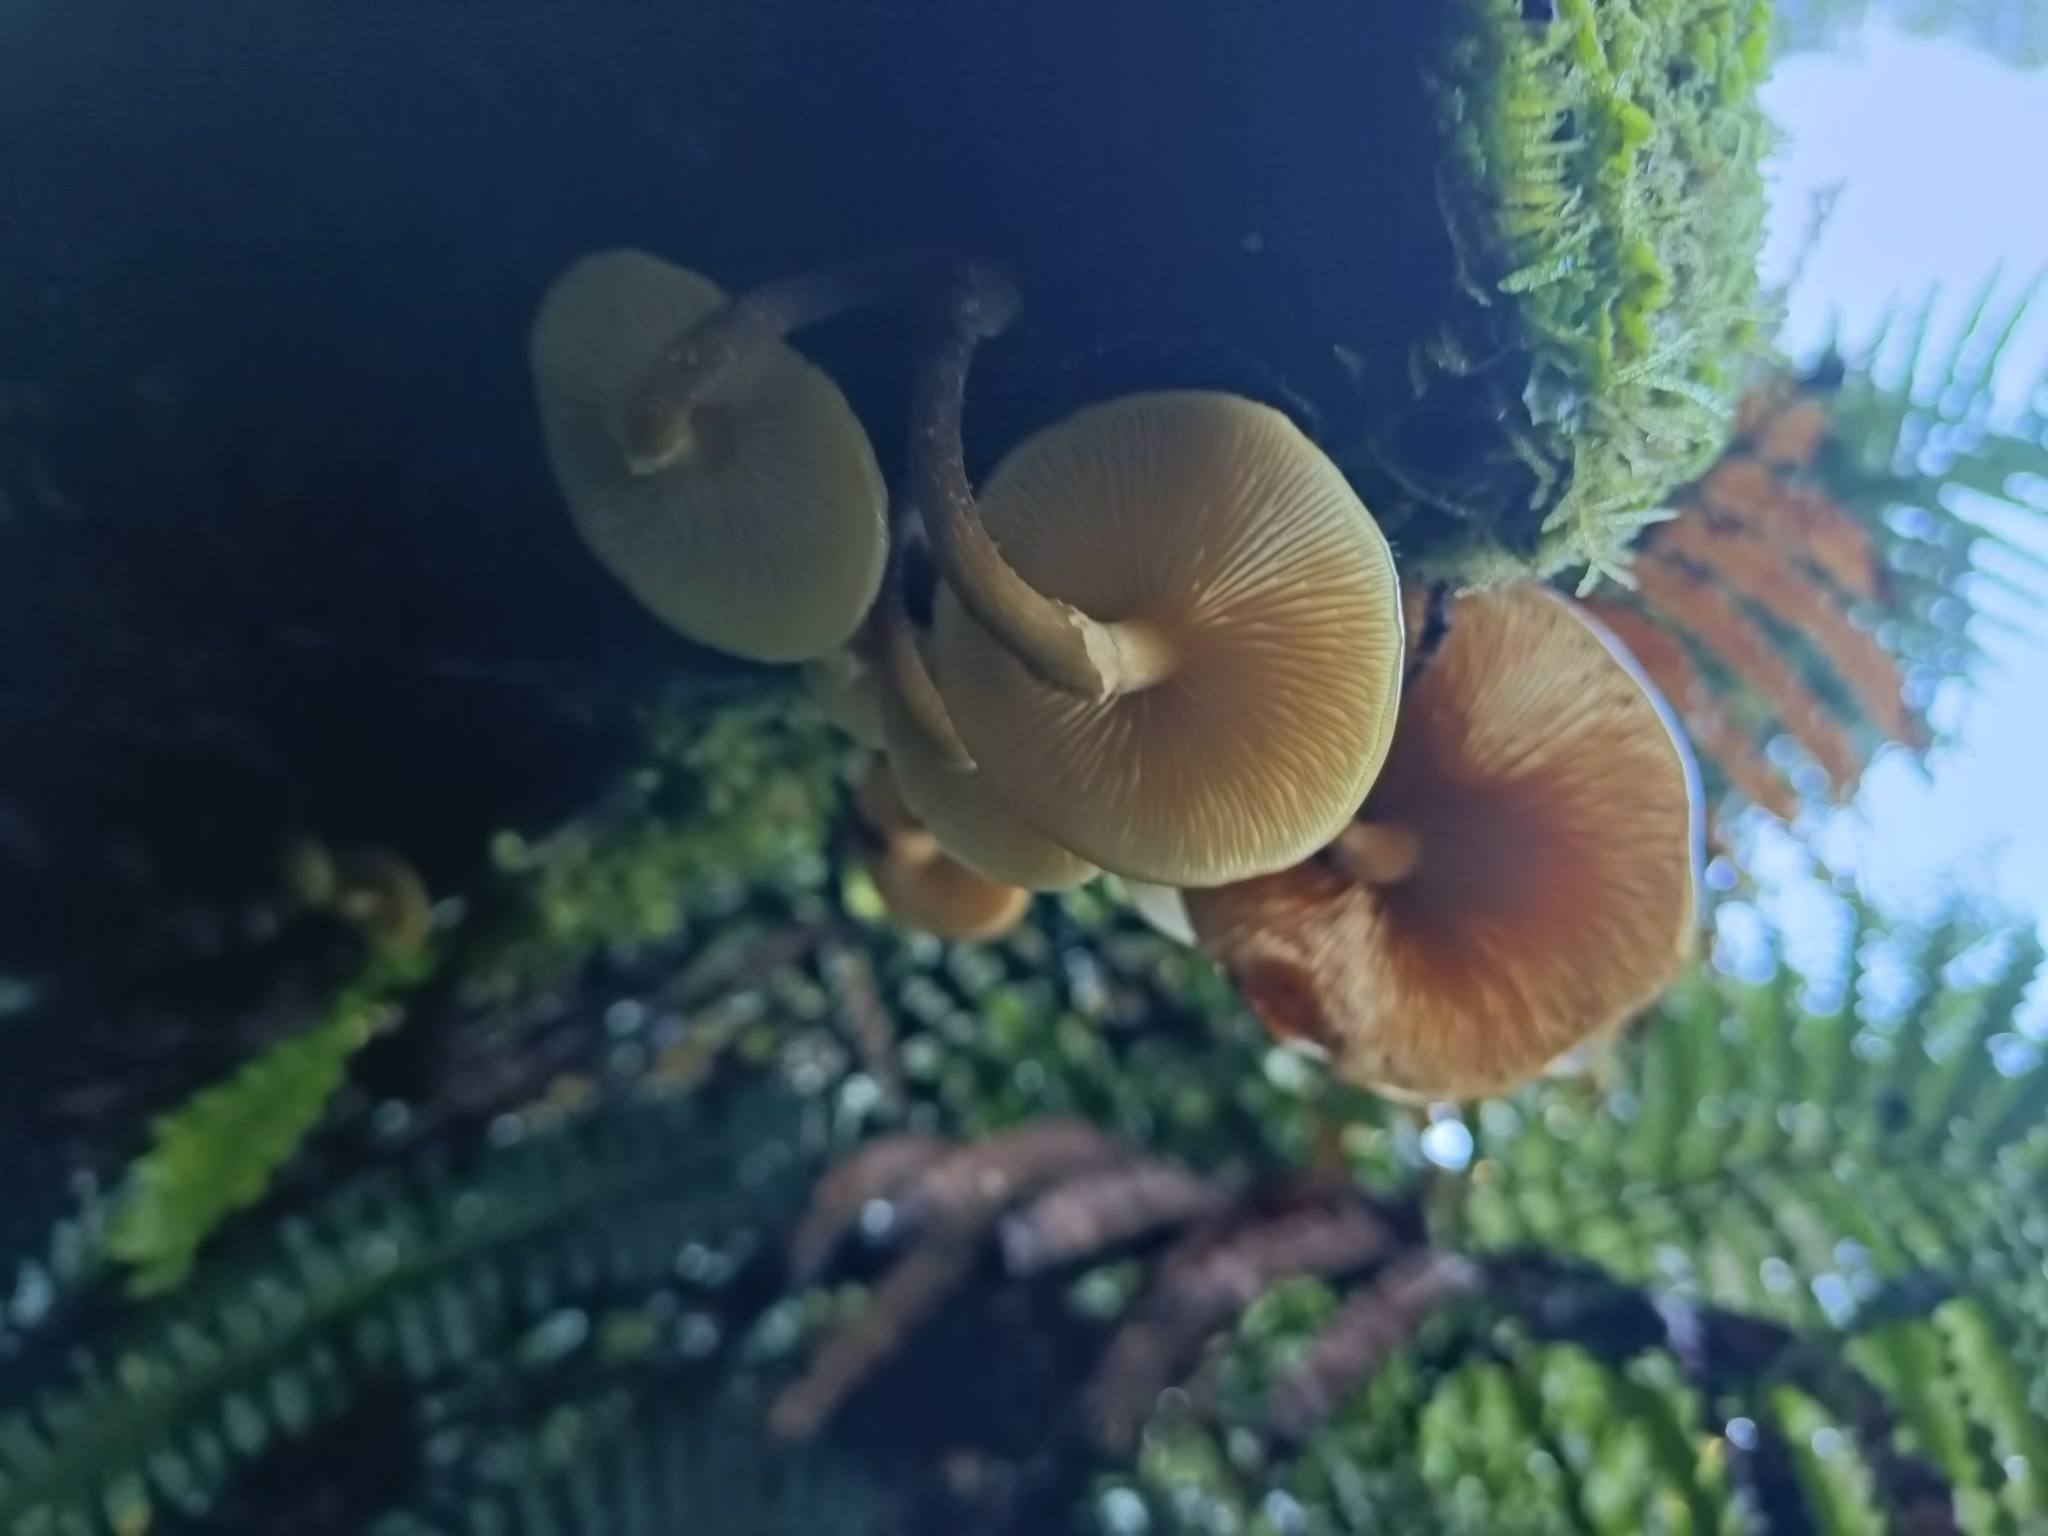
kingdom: Fungi
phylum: Basidiomycota
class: Agaricomycetes
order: Agaricales
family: Physalacriaceae
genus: Armillaria
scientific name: Armillaria novae-zelandiae
